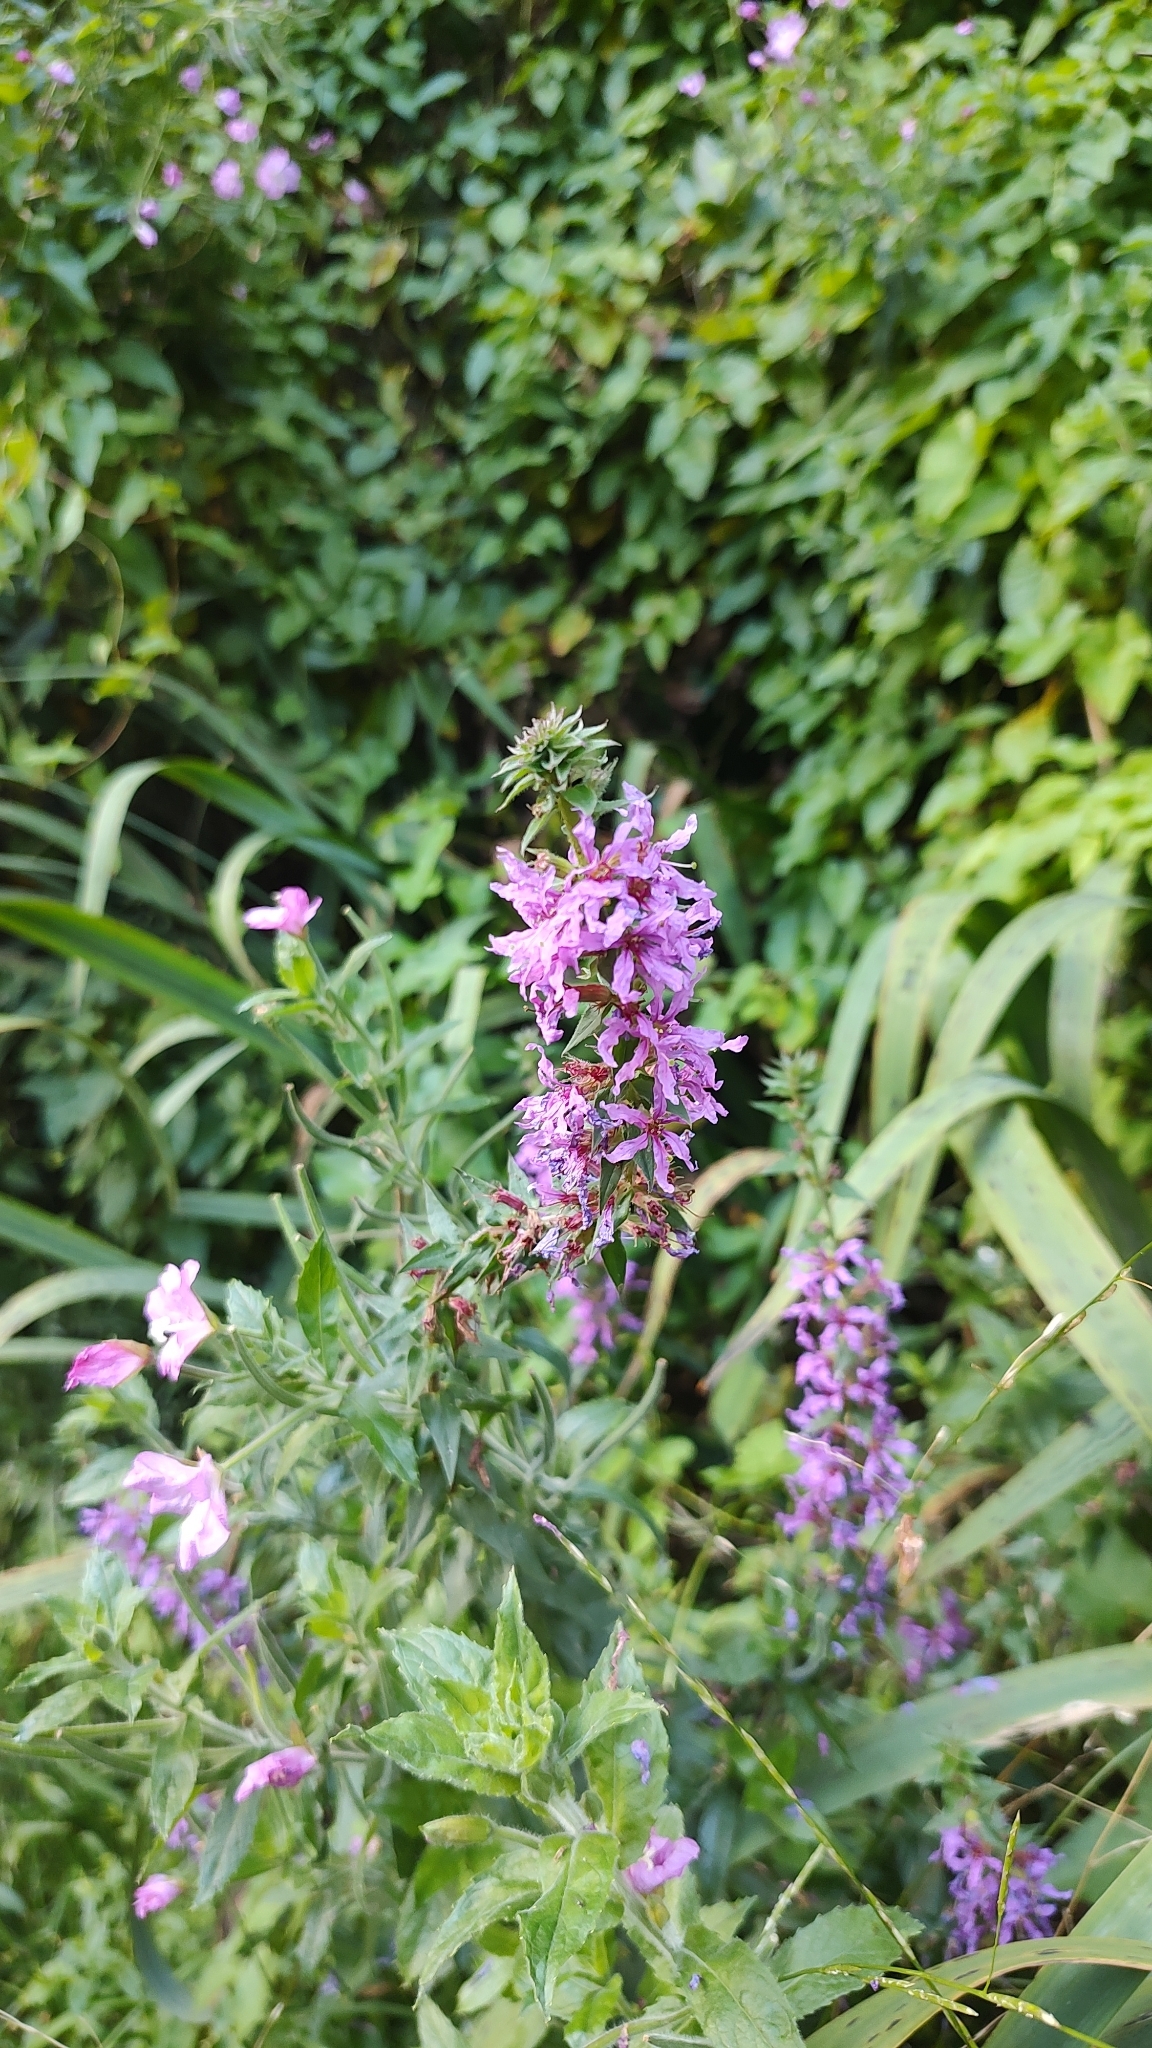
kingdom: Plantae
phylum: Tracheophyta
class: Magnoliopsida
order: Myrtales
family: Lythraceae
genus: Lythrum
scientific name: Lythrum salicaria
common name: Purple loosestrife
